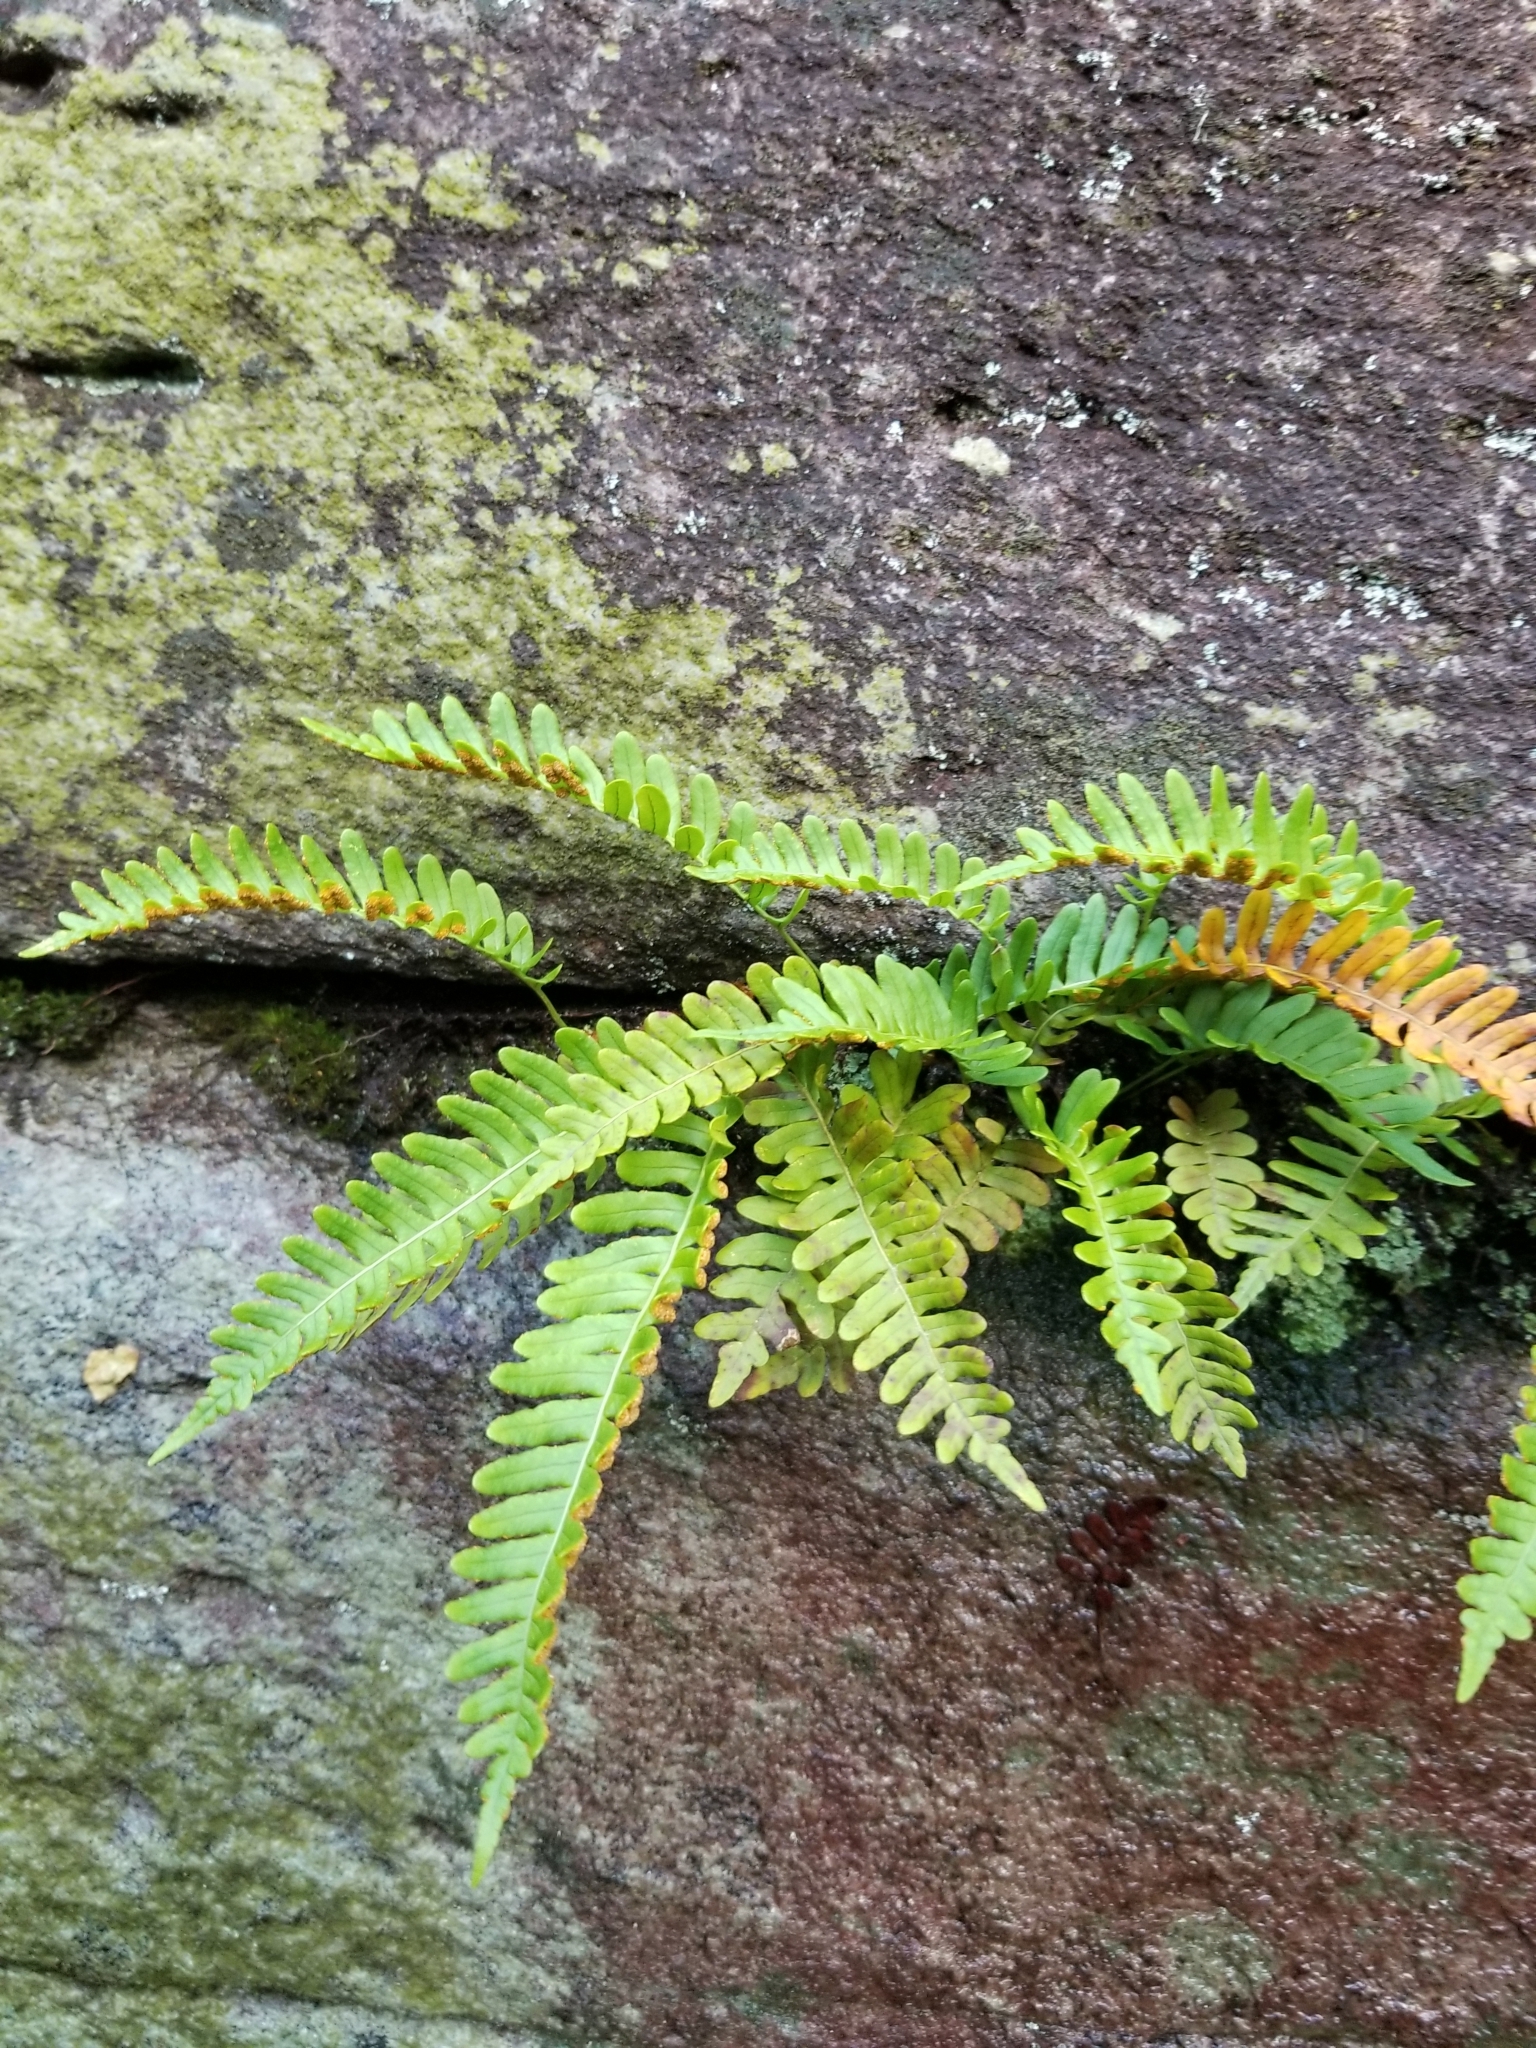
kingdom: Plantae
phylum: Tracheophyta
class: Polypodiopsida
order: Polypodiales
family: Polypodiaceae
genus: Polypodium
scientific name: Polypodium virginianum
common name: American wall fern
